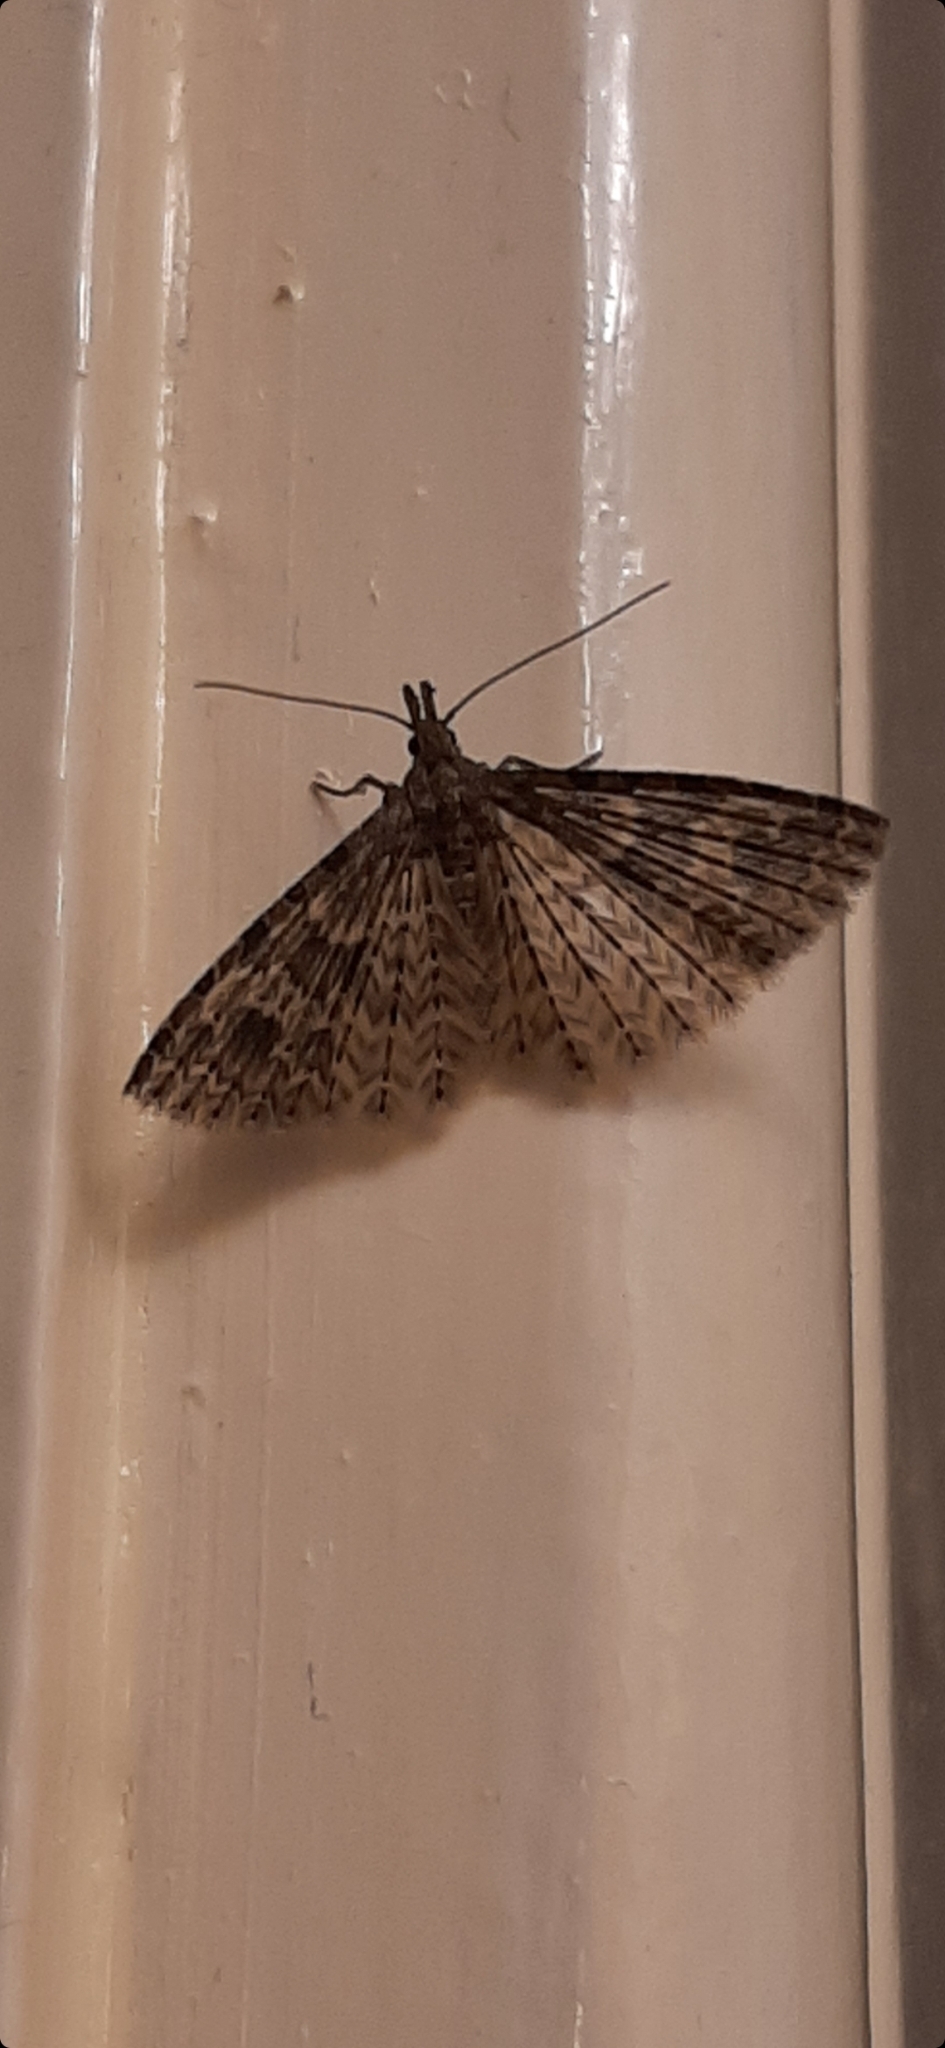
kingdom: Animalia
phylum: Arthropoda
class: Insecta
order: Lepidoptera
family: Alucitidae
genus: Alucita
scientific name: Alucita hexadactyla
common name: Twenty-plume moth
